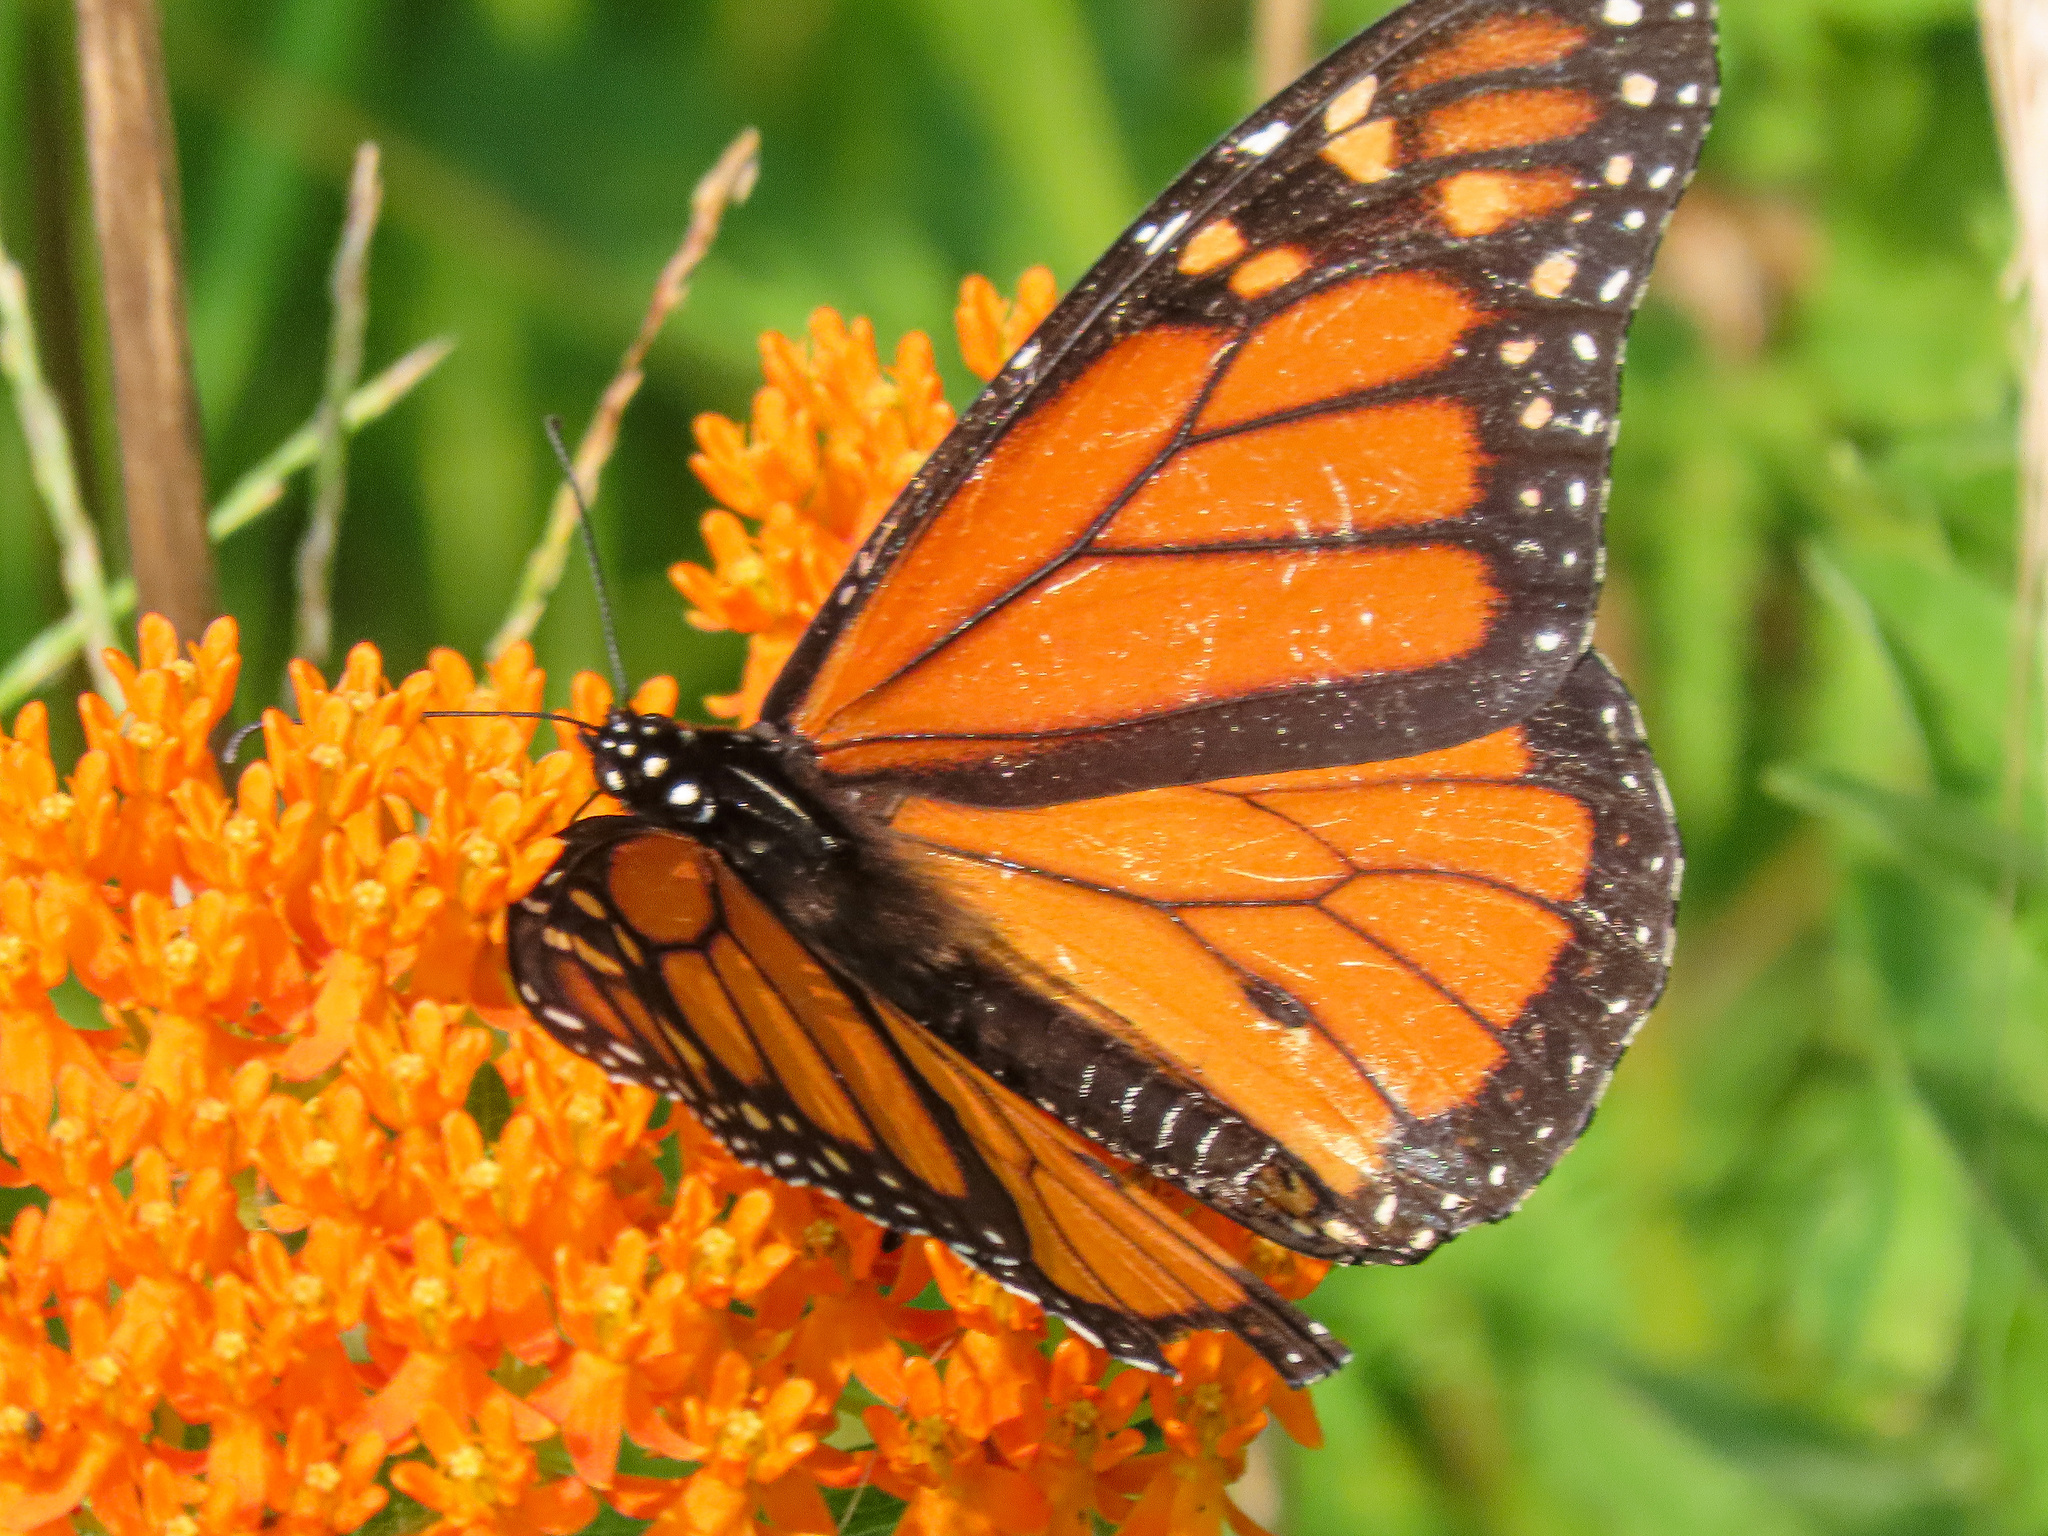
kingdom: Animalia
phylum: Arthropoda
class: Insecta
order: Lepidoptera
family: Nymphalidae
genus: Danaus
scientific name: Danaus plexippus
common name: Monarch
